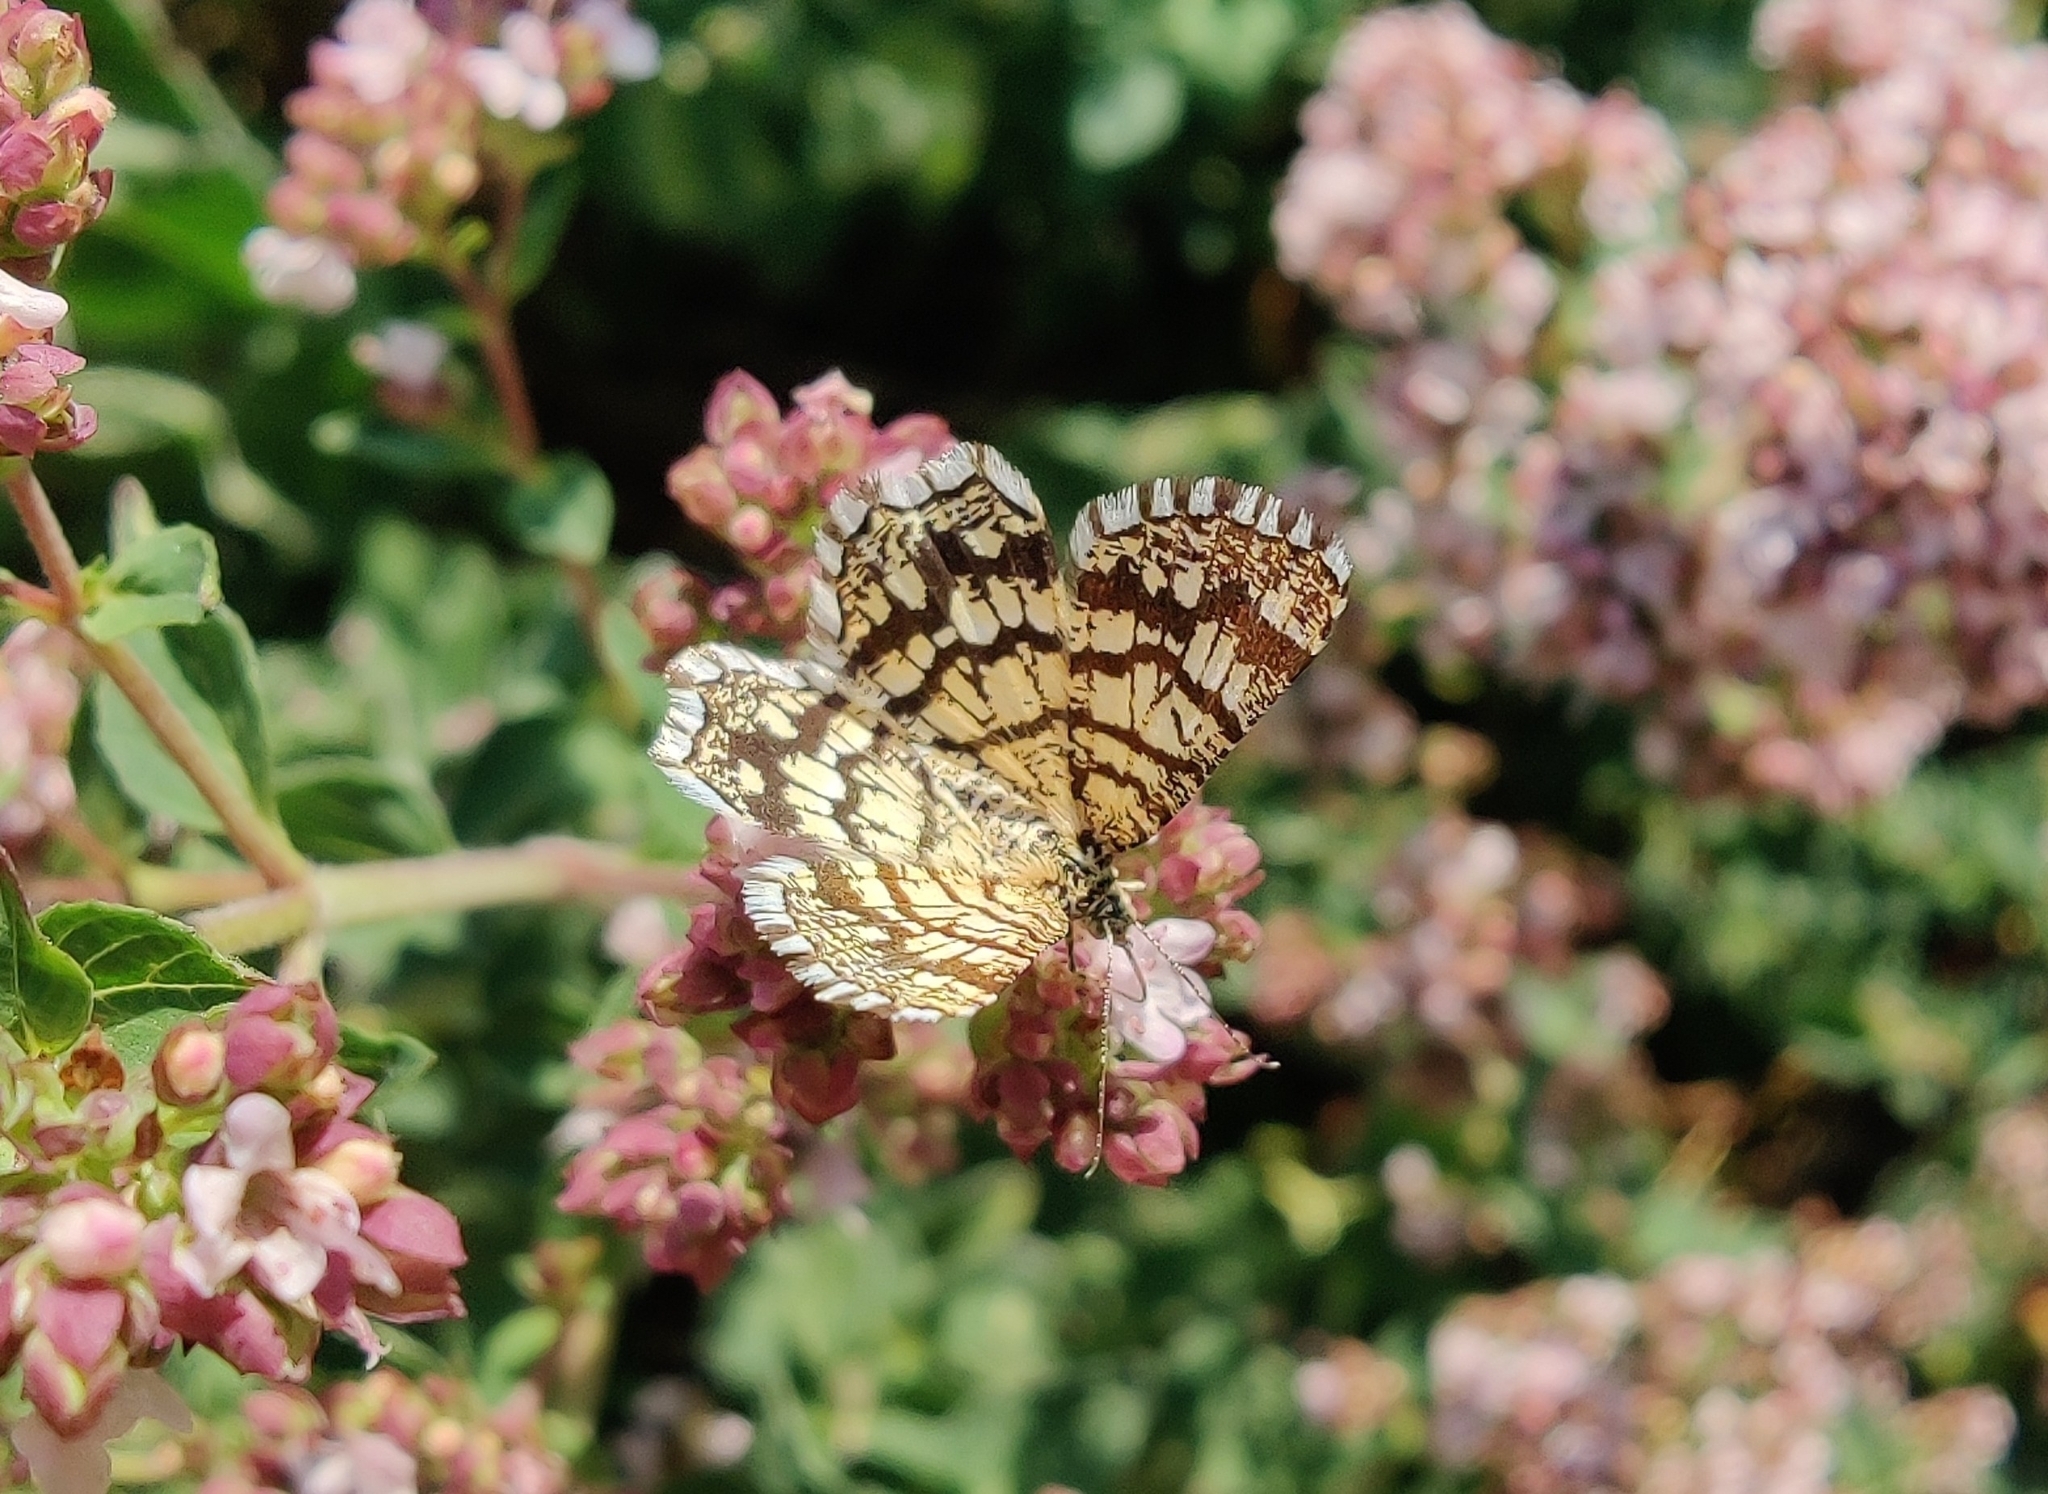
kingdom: Animalia
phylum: Arthropoda
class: Insecta
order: Lepidoptera
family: Geometridae
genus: Chiasmia
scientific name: Chiasmia clathrata
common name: Latticed heath
